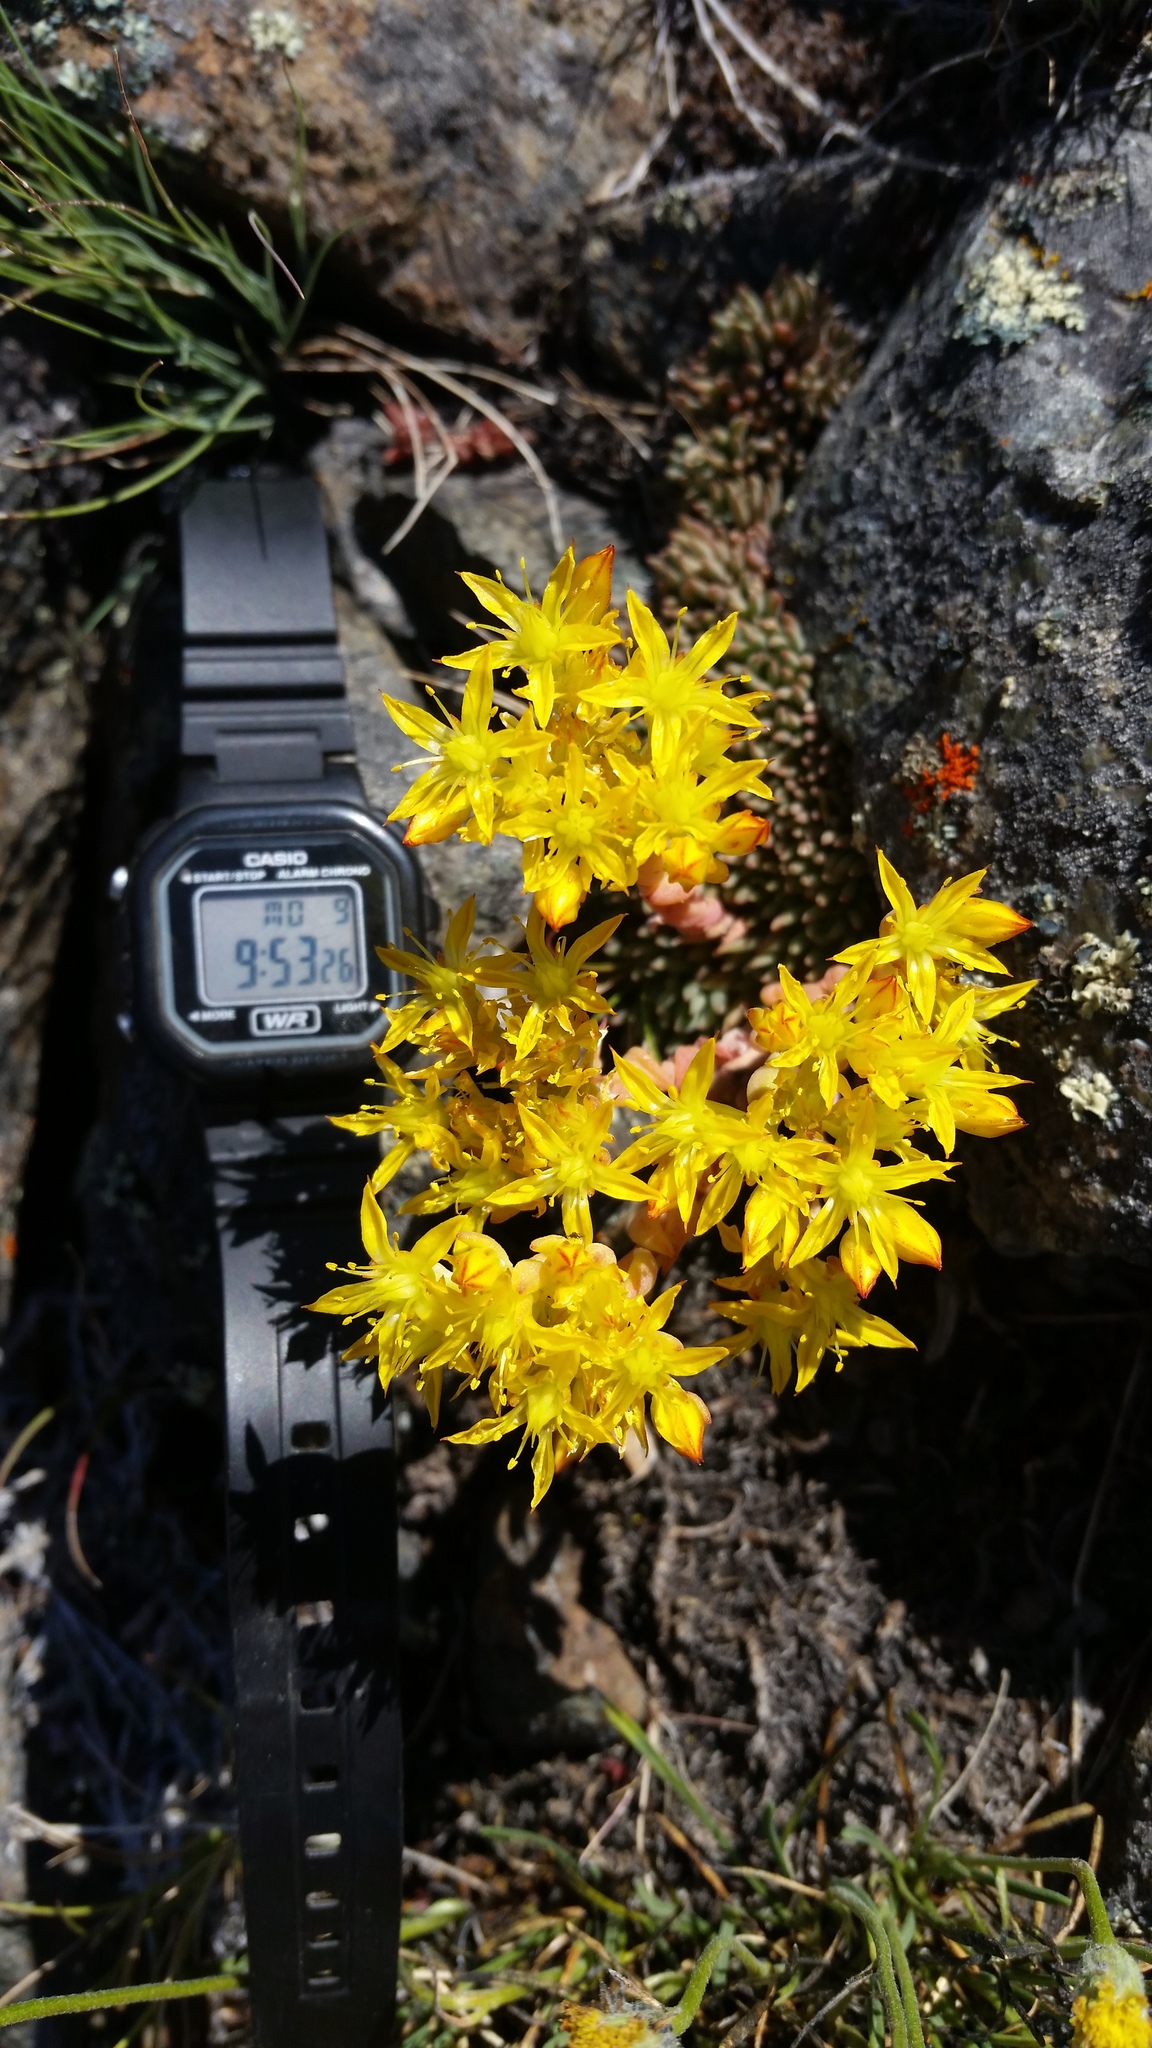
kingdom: Plantae
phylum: Tracheophyta
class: Magnoliopsida
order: Saxifragales
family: Crassulaceae
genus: Sedum
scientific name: Sedum lanceolatum
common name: Common stonecrop
